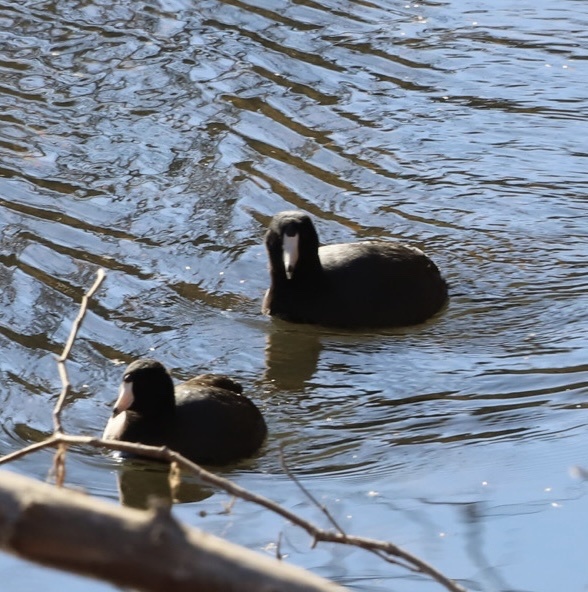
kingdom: Animalia
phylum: Chordata
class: Aves
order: Gruiformes
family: Rallidae
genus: Fulica
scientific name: Fulica americana
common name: American coot
